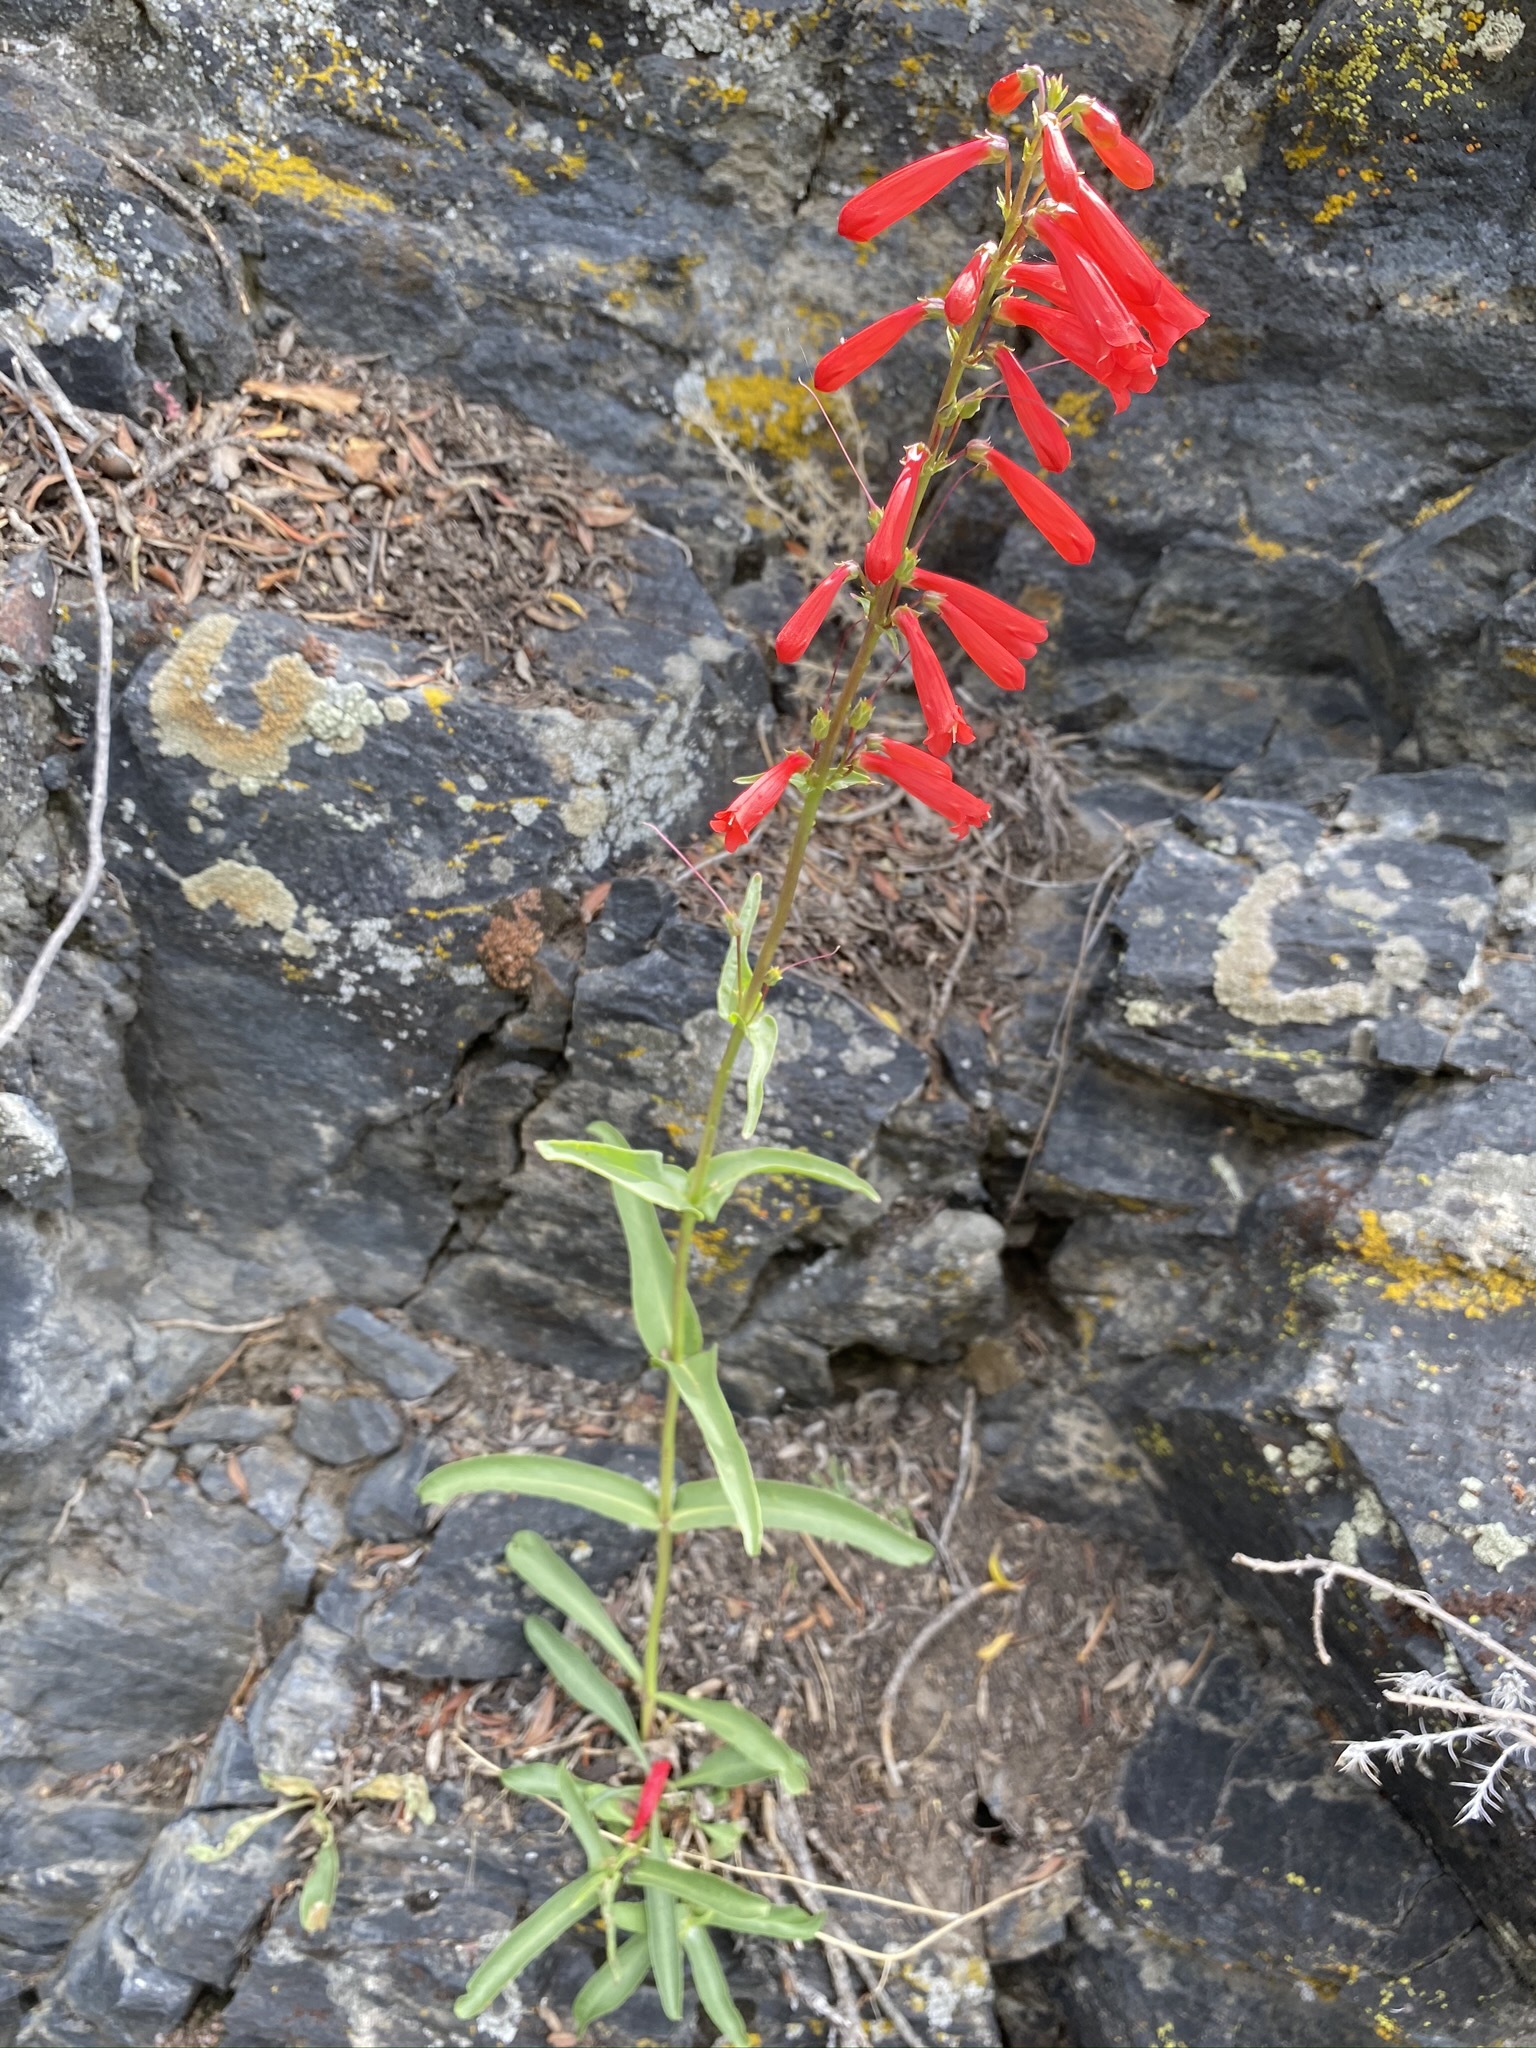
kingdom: Plantae
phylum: Tracheophyta
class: Magnoliopsida
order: Lamiales
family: Plantaginaceae
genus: Penstemon
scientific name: Penstemon eatonii
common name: Eaton's penstemon
